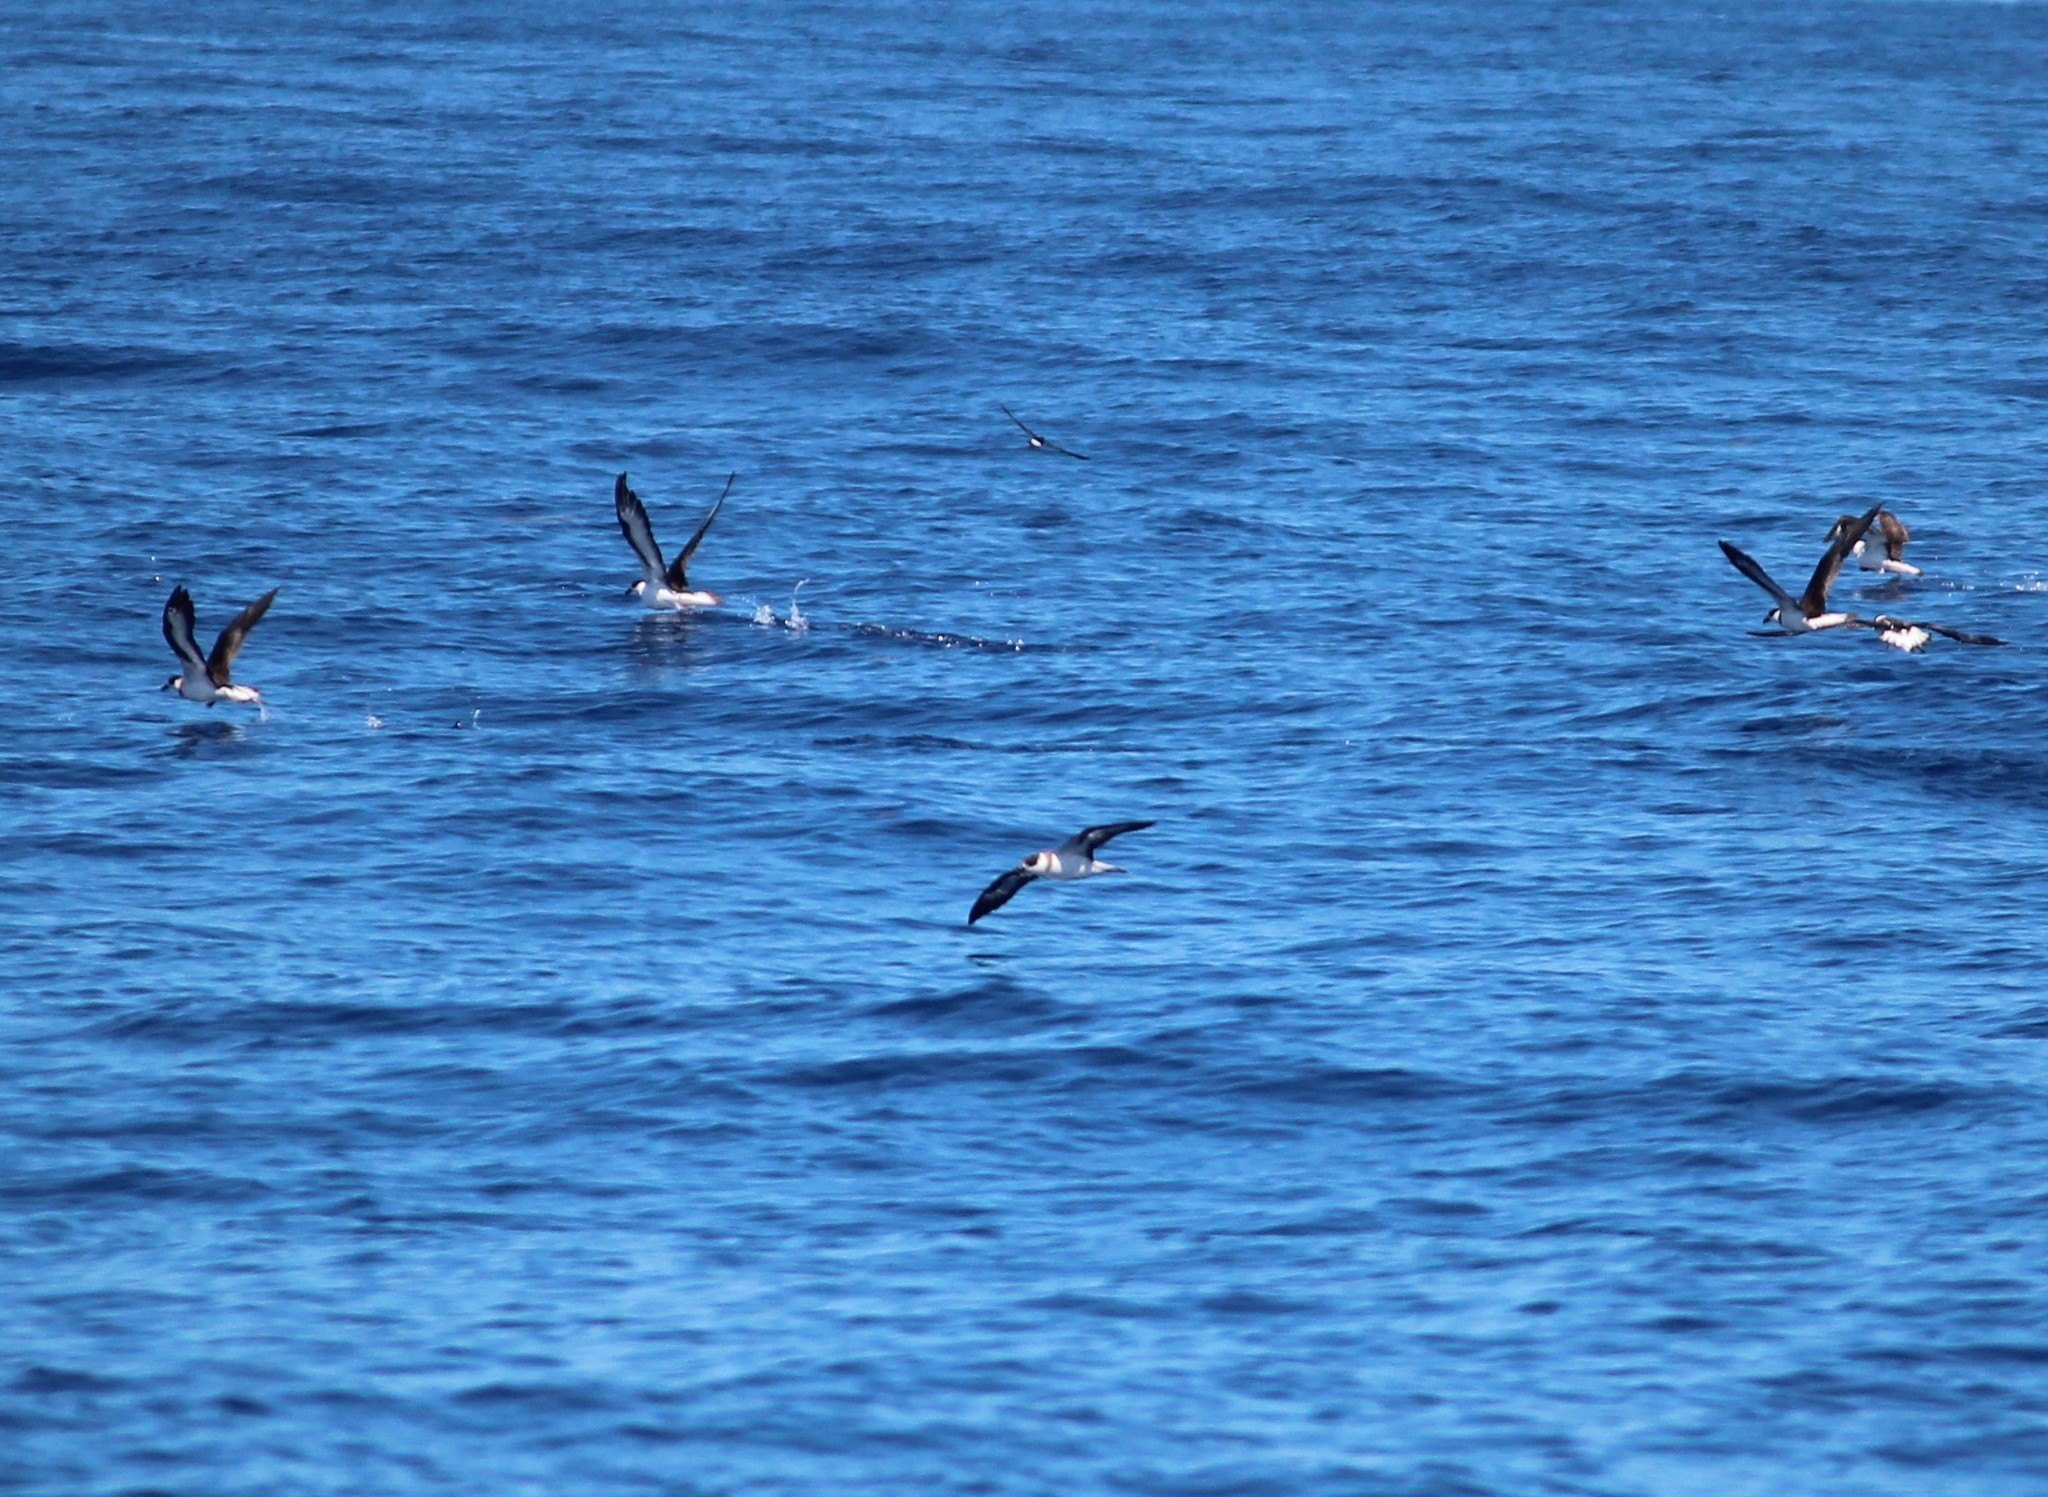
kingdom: Animalia
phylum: Chordata
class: Aves
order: Procellariiformes
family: Procellariidae
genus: Pterodroma
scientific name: Pterodroma hasitata
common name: Black-capped petrel
